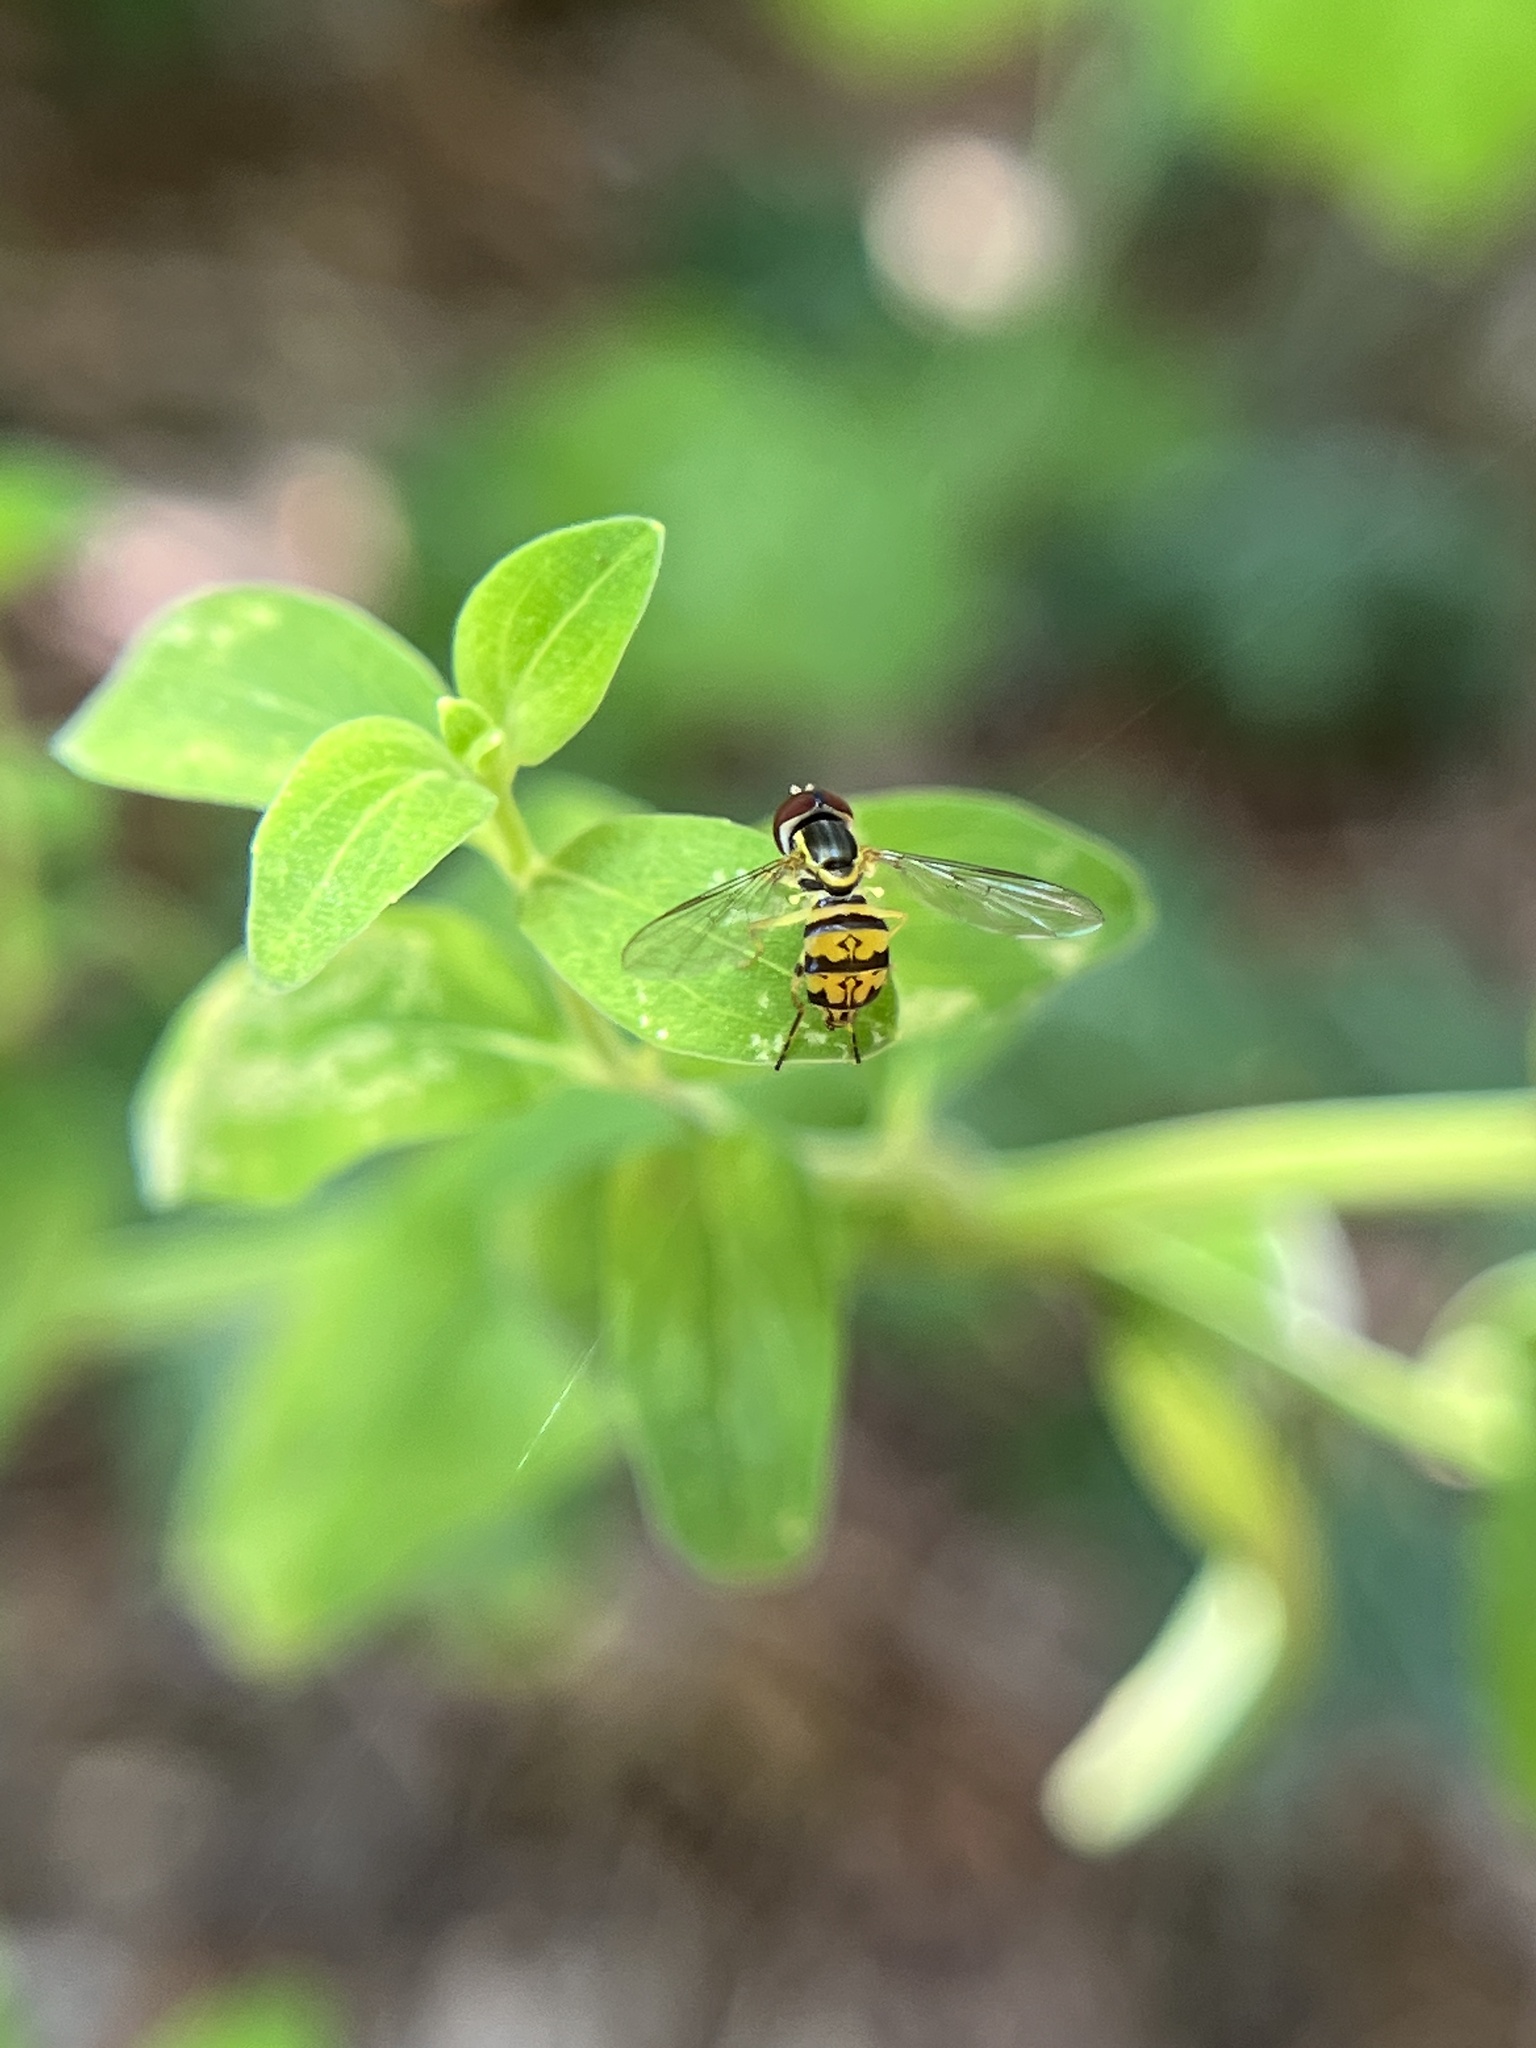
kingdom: Animalia
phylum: Arthropoda
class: Insecta
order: Diptera
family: Syrphidae
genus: Toxomerus
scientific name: Toxomerus geminatus
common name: Eastern calligrapher
